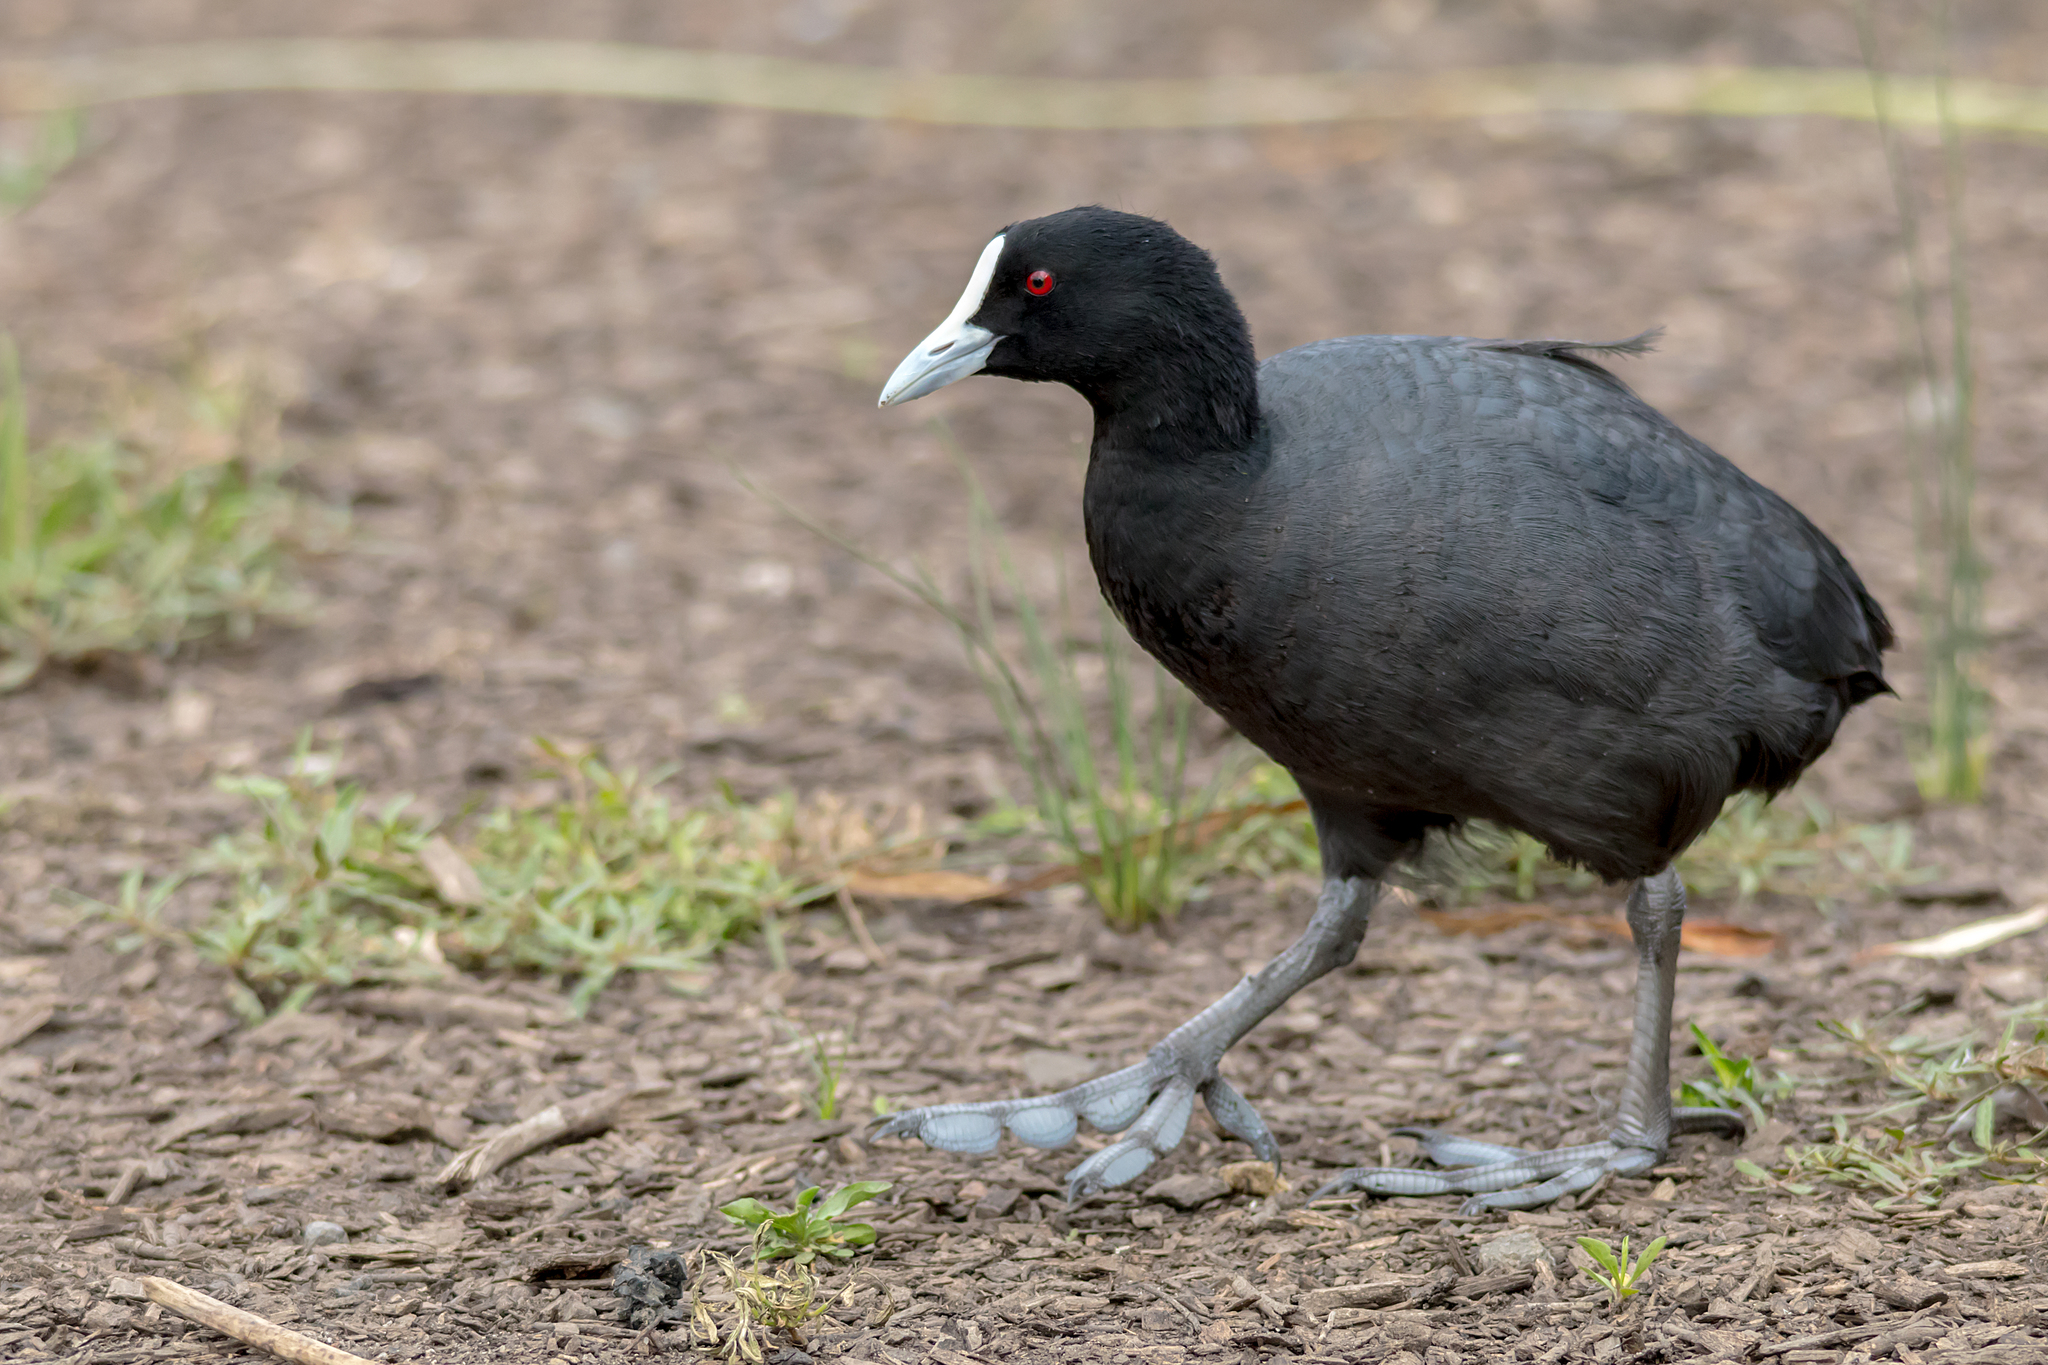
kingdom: Animalia
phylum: Chordata
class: Aves
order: Gruiformes
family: Rallidae
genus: Fulica
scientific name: Fulica atra
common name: Eurasian coot
